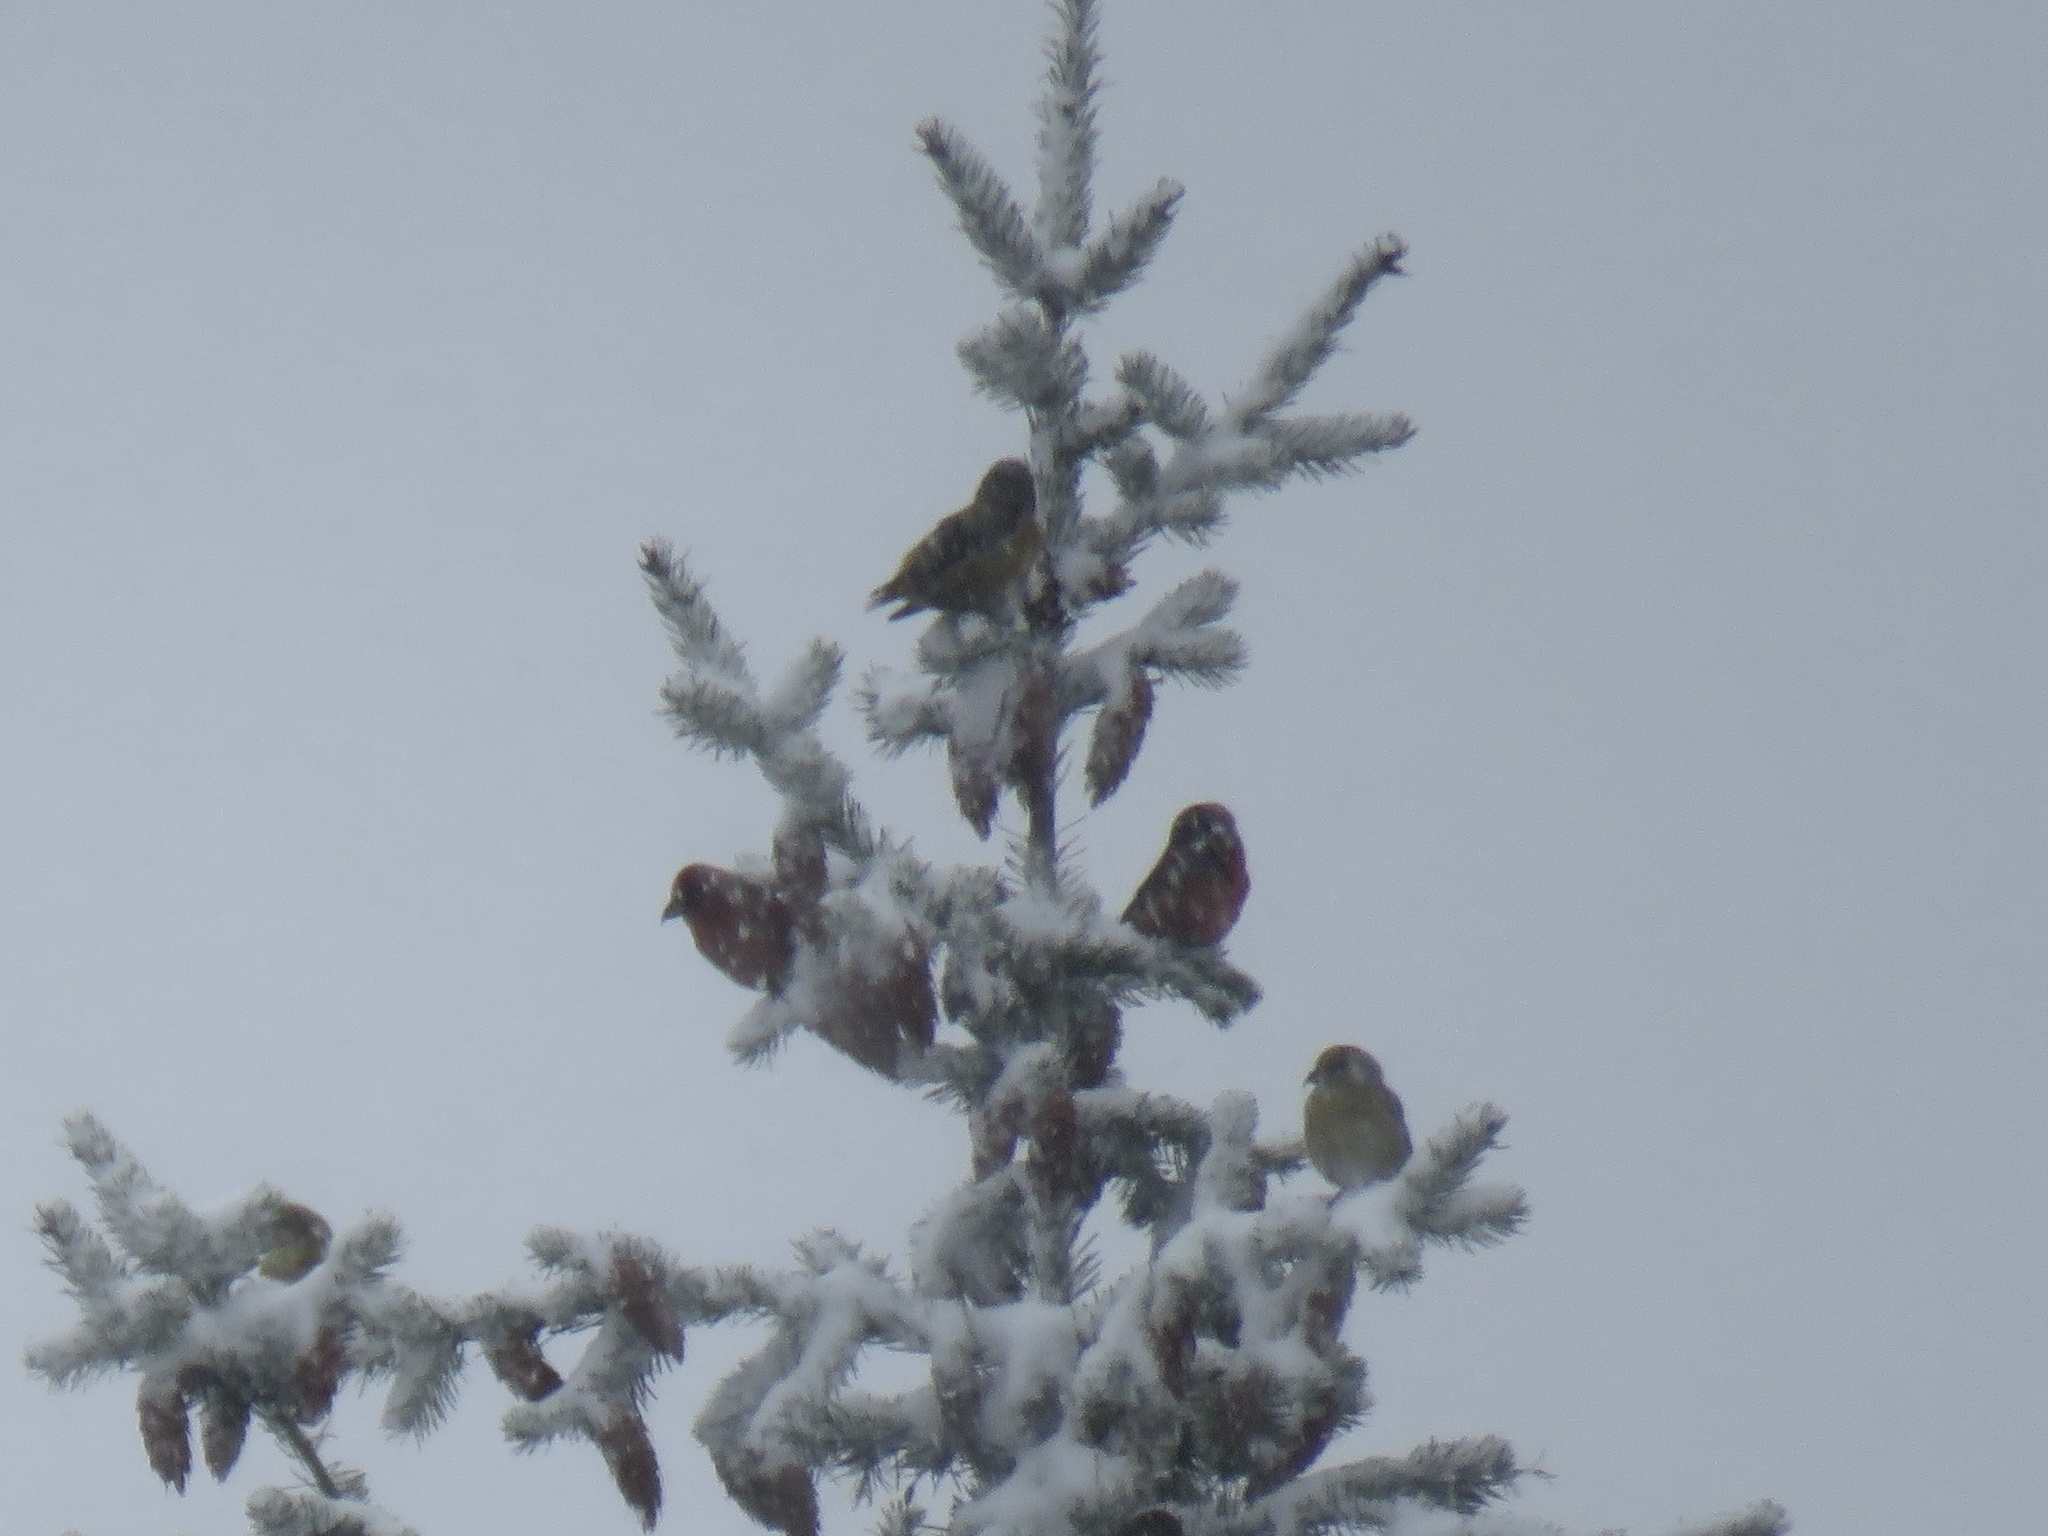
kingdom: Animalia
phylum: Chordata
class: Aves
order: Passeriformes
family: Fringillidae
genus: Loxia
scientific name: Loxia curvirostra
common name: Red crossbill
